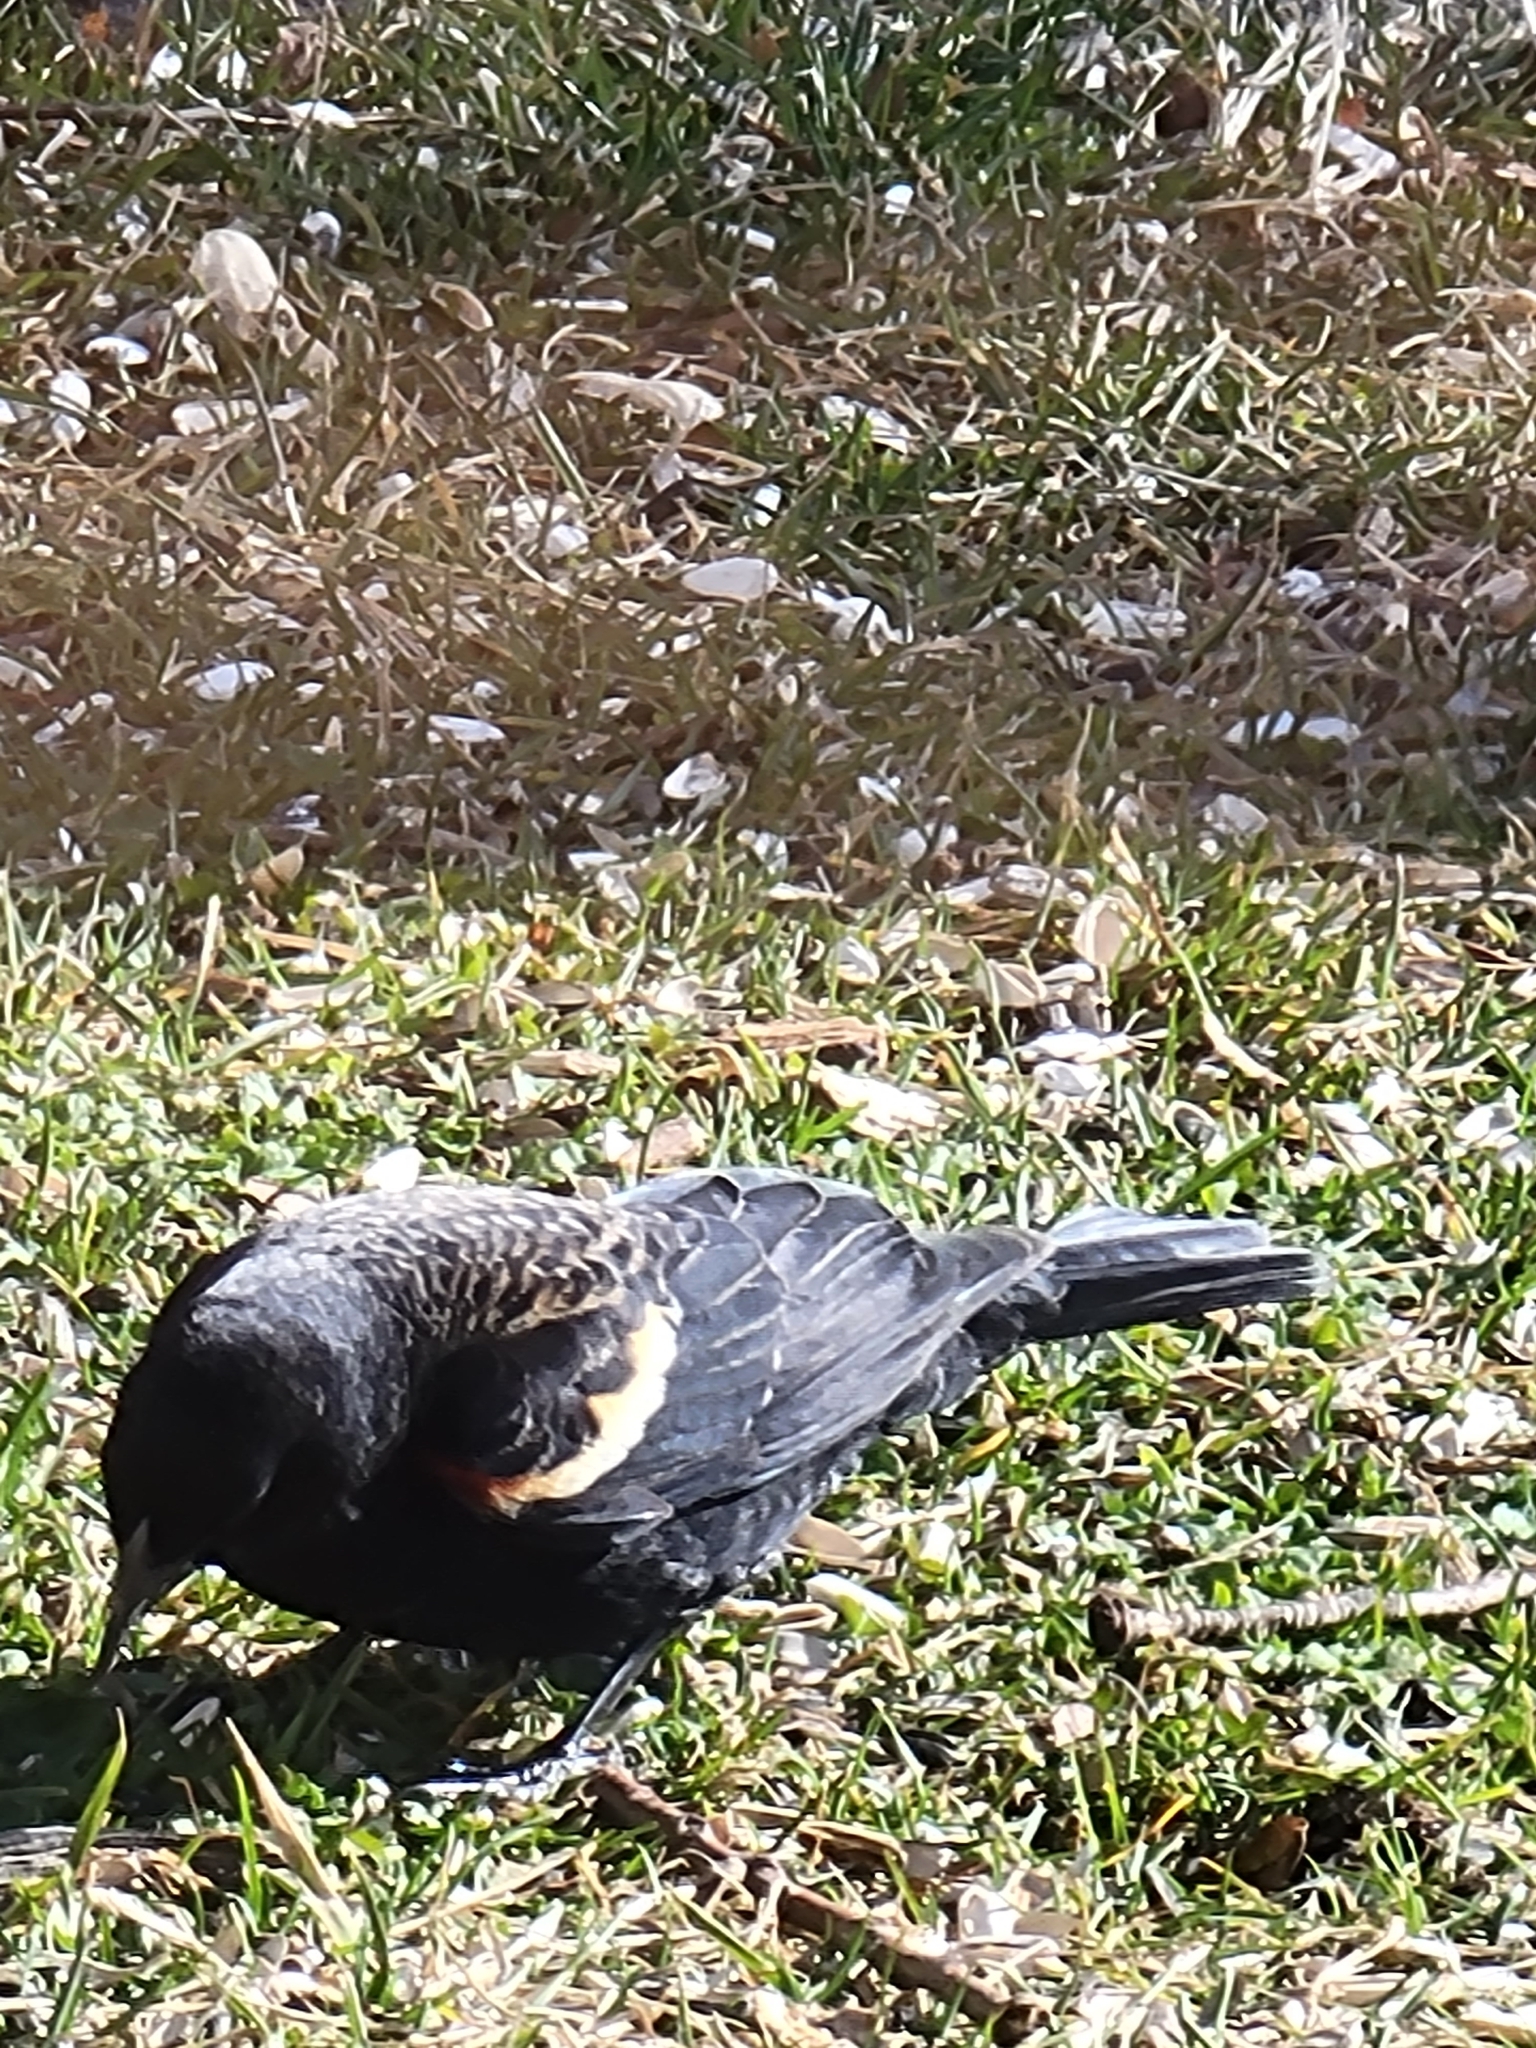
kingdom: Animalia
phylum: Chordata
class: Aves
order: Passeriformes
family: Icteridae
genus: Agelaius
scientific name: Agelaius phoeniceus
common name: Red-winged blackbird
